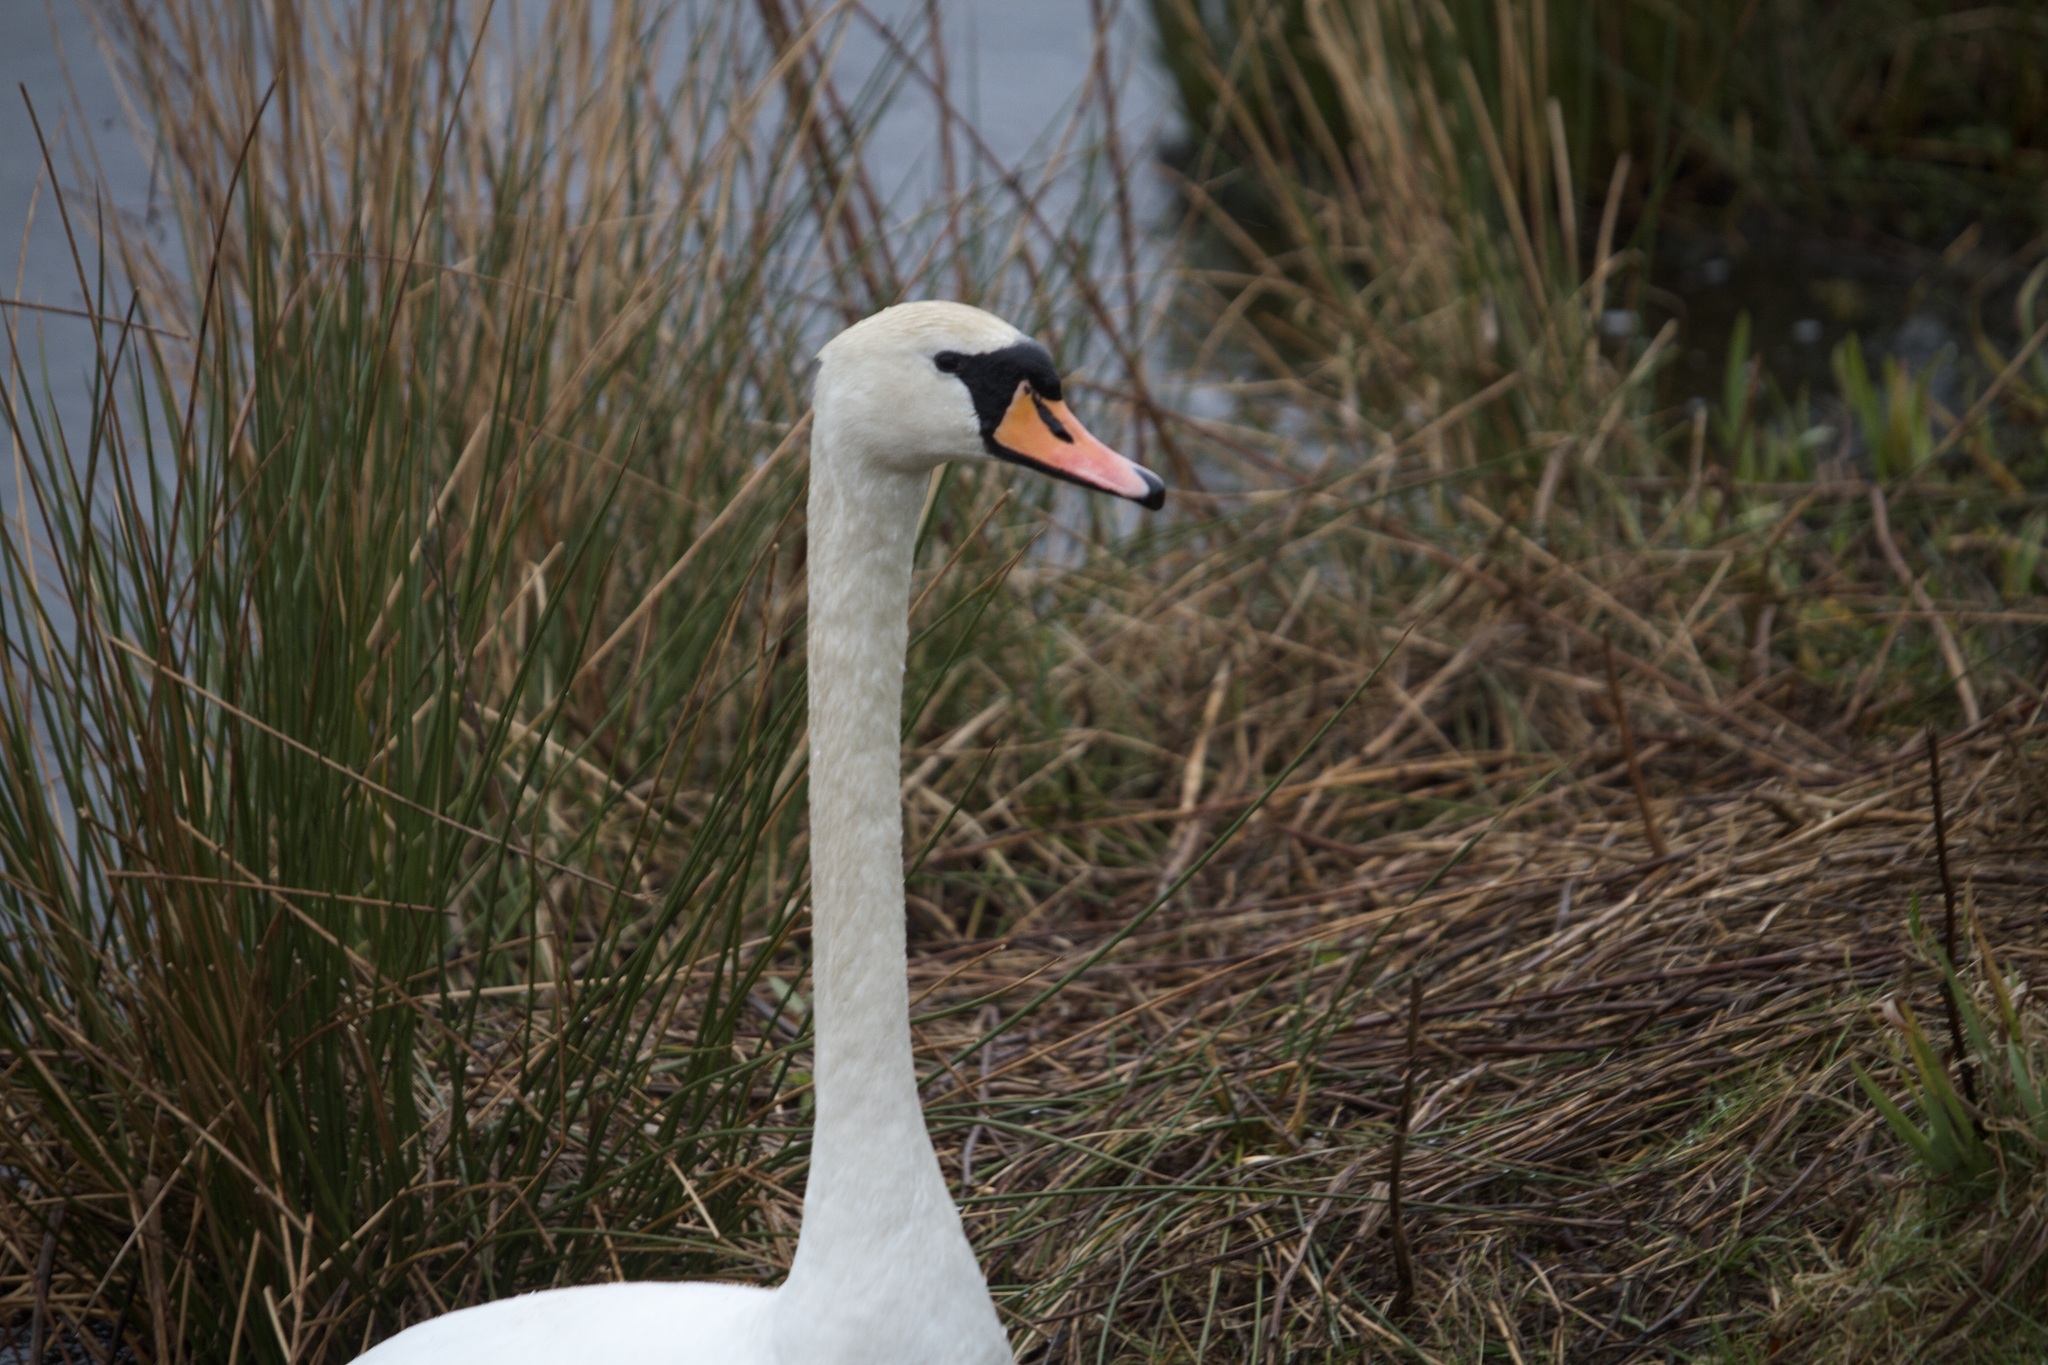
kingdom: Animalia
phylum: Chordata
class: Aves
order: Anseriformes
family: Anatidae
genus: Cygnus
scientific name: Cygnus olor
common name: Mute swan
